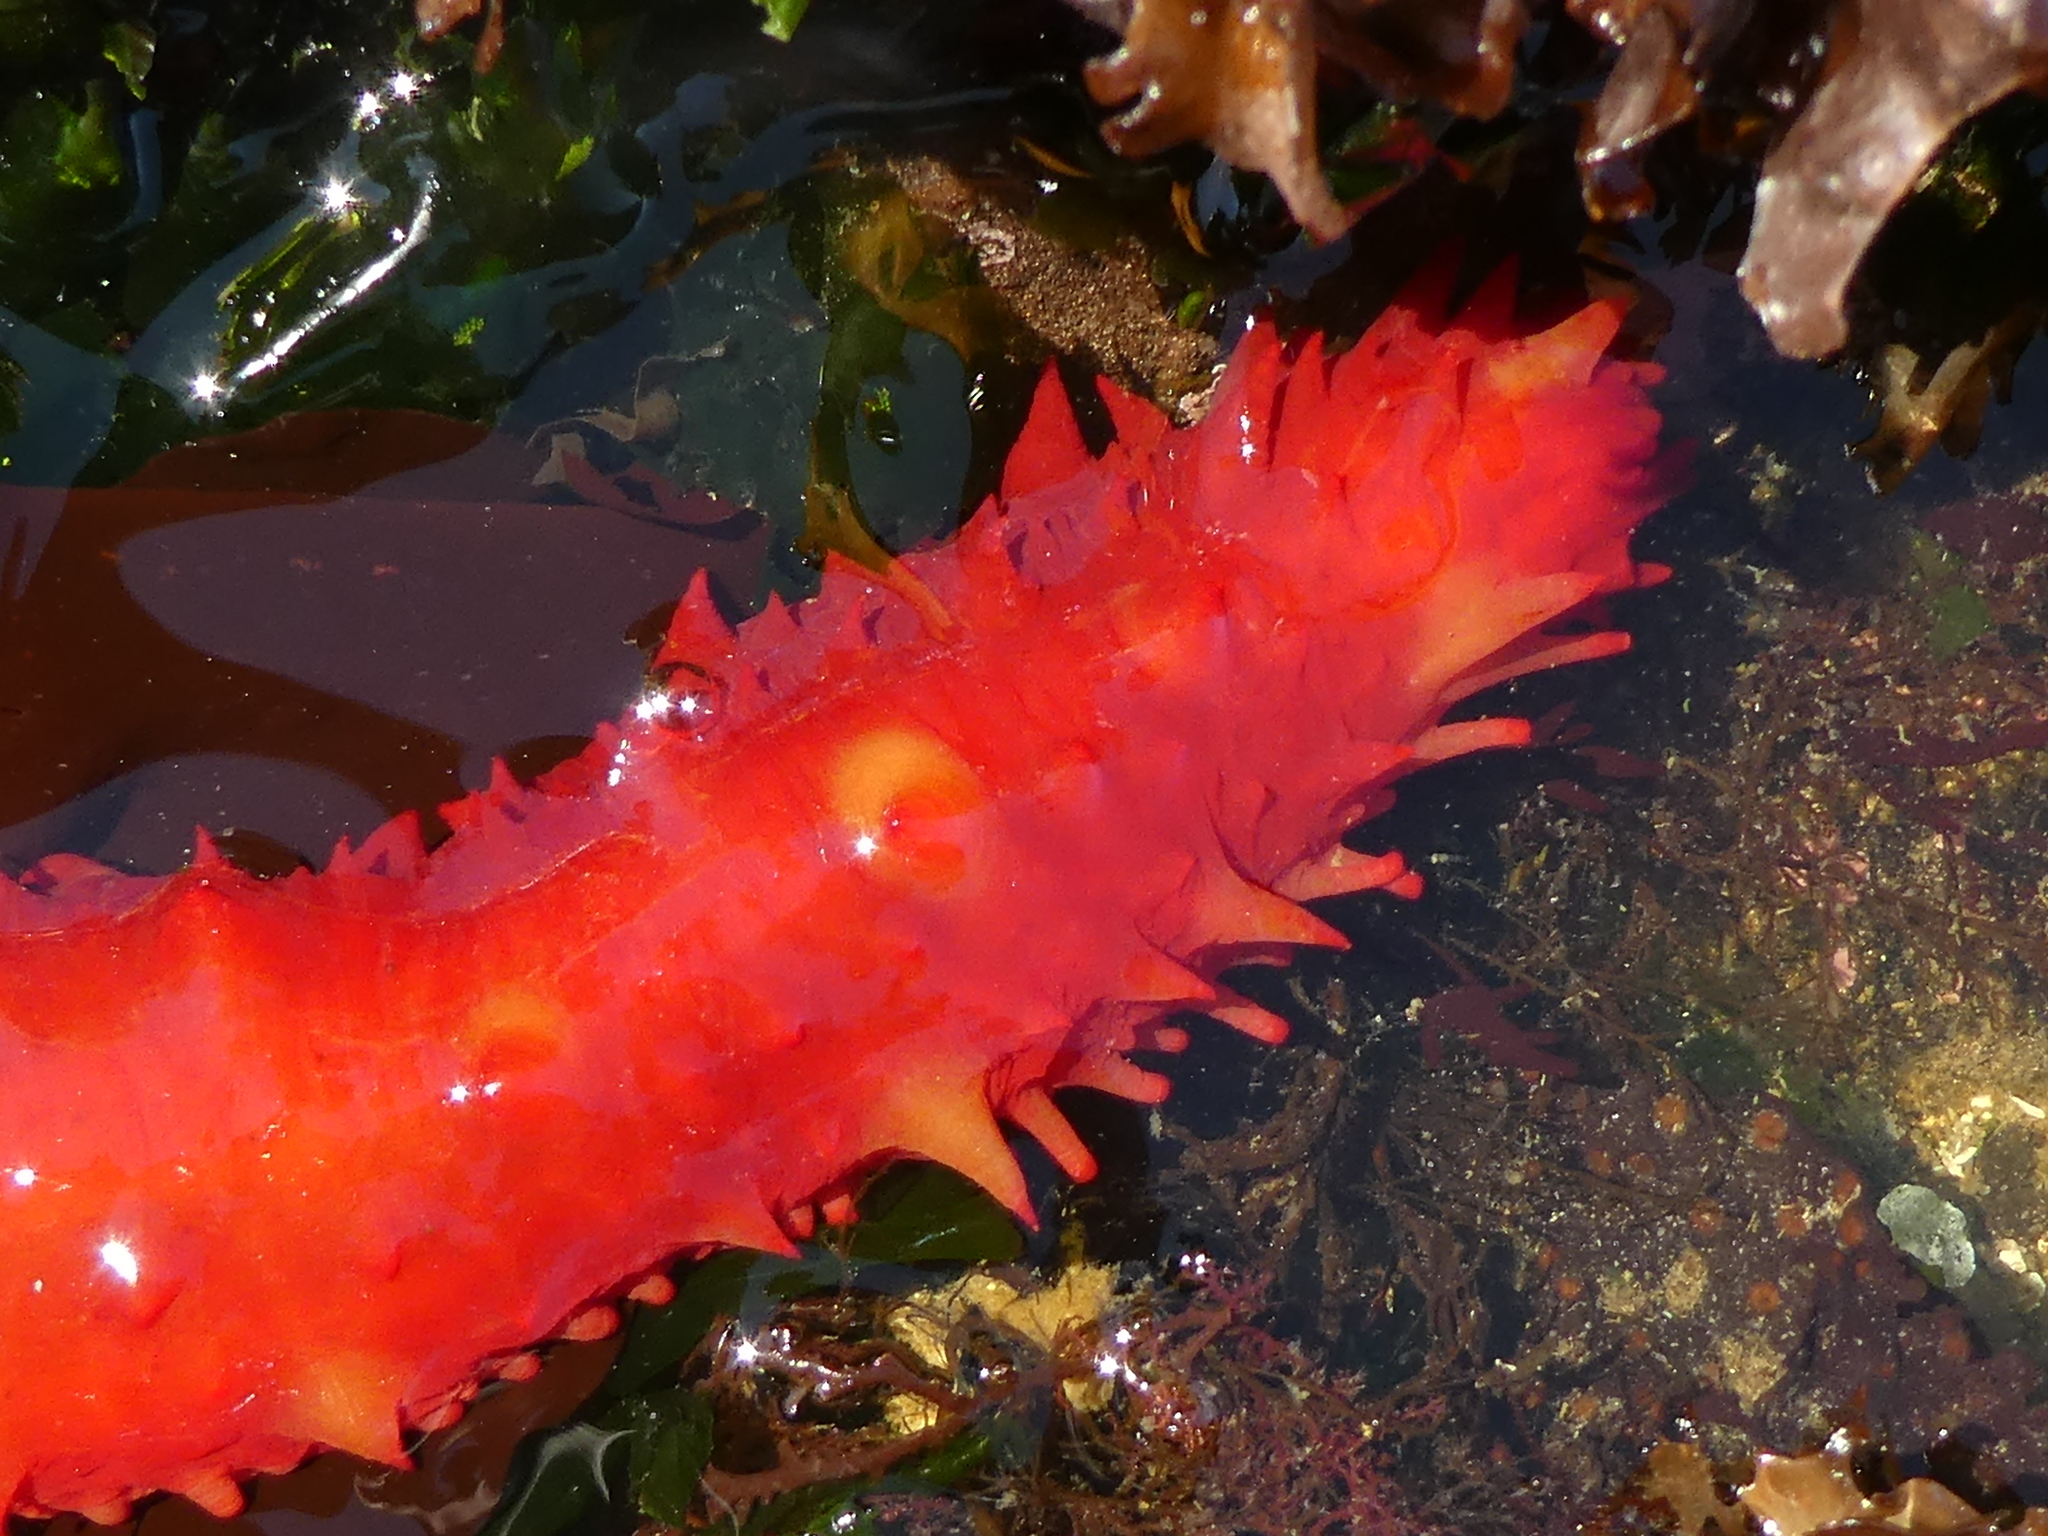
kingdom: Animalia
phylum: Echinodermata
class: Holothuroidea
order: Synallactida
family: Stichopodidae
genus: Apostichopus
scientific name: Apostichopus californicus
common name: California sea cucumber
